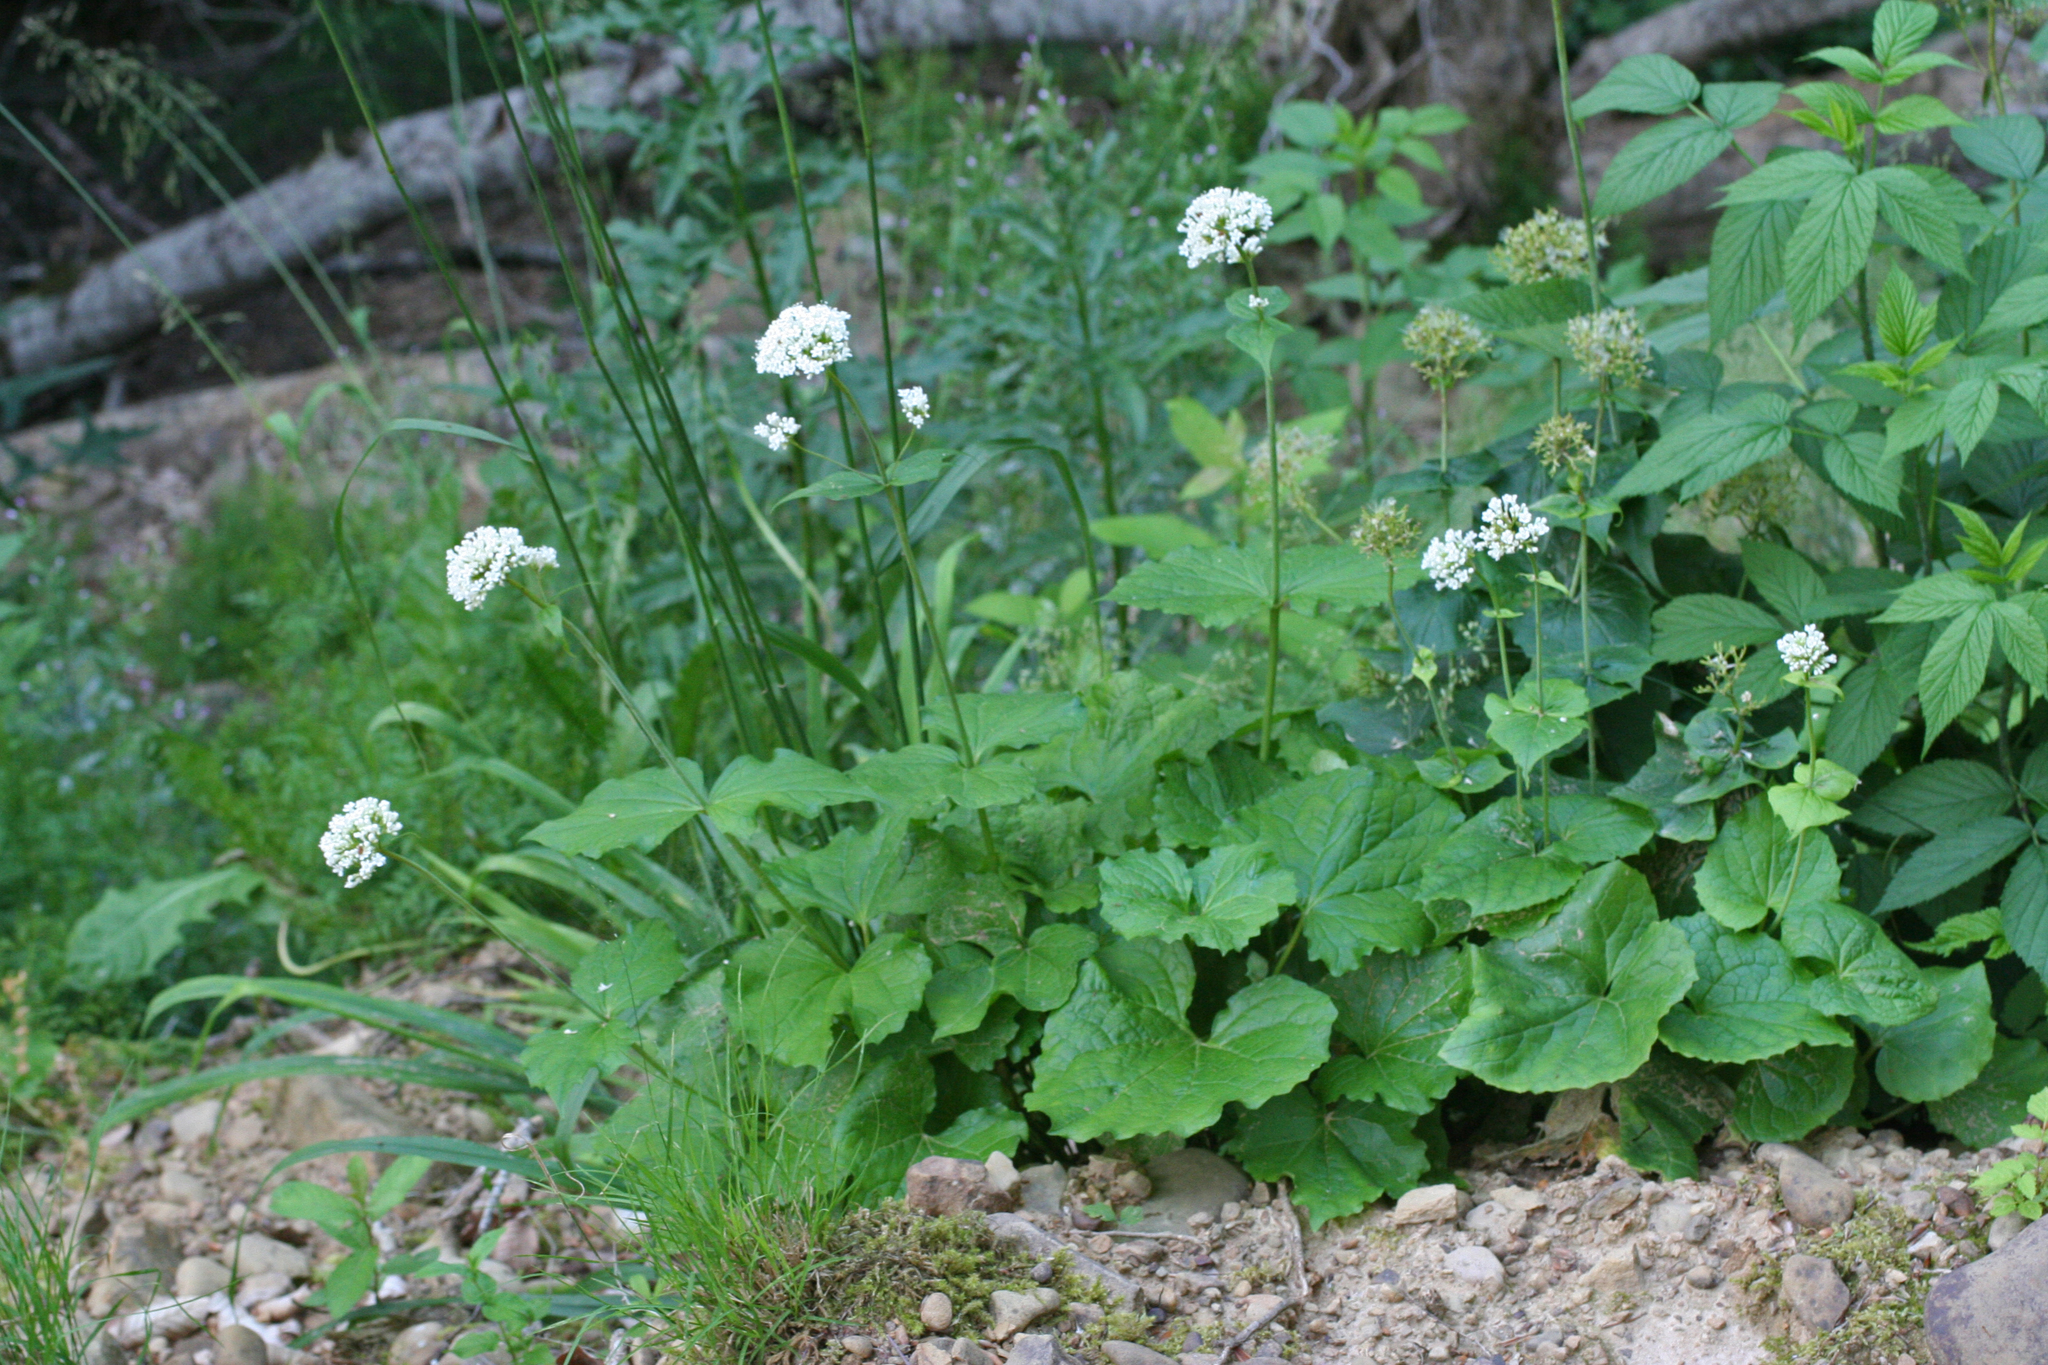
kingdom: Plantae
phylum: Tracheophyta
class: Magnoliopsida
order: Dipsacales
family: Caprifoliaceae
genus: Valeriana
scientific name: Valeriana alliariifolia
